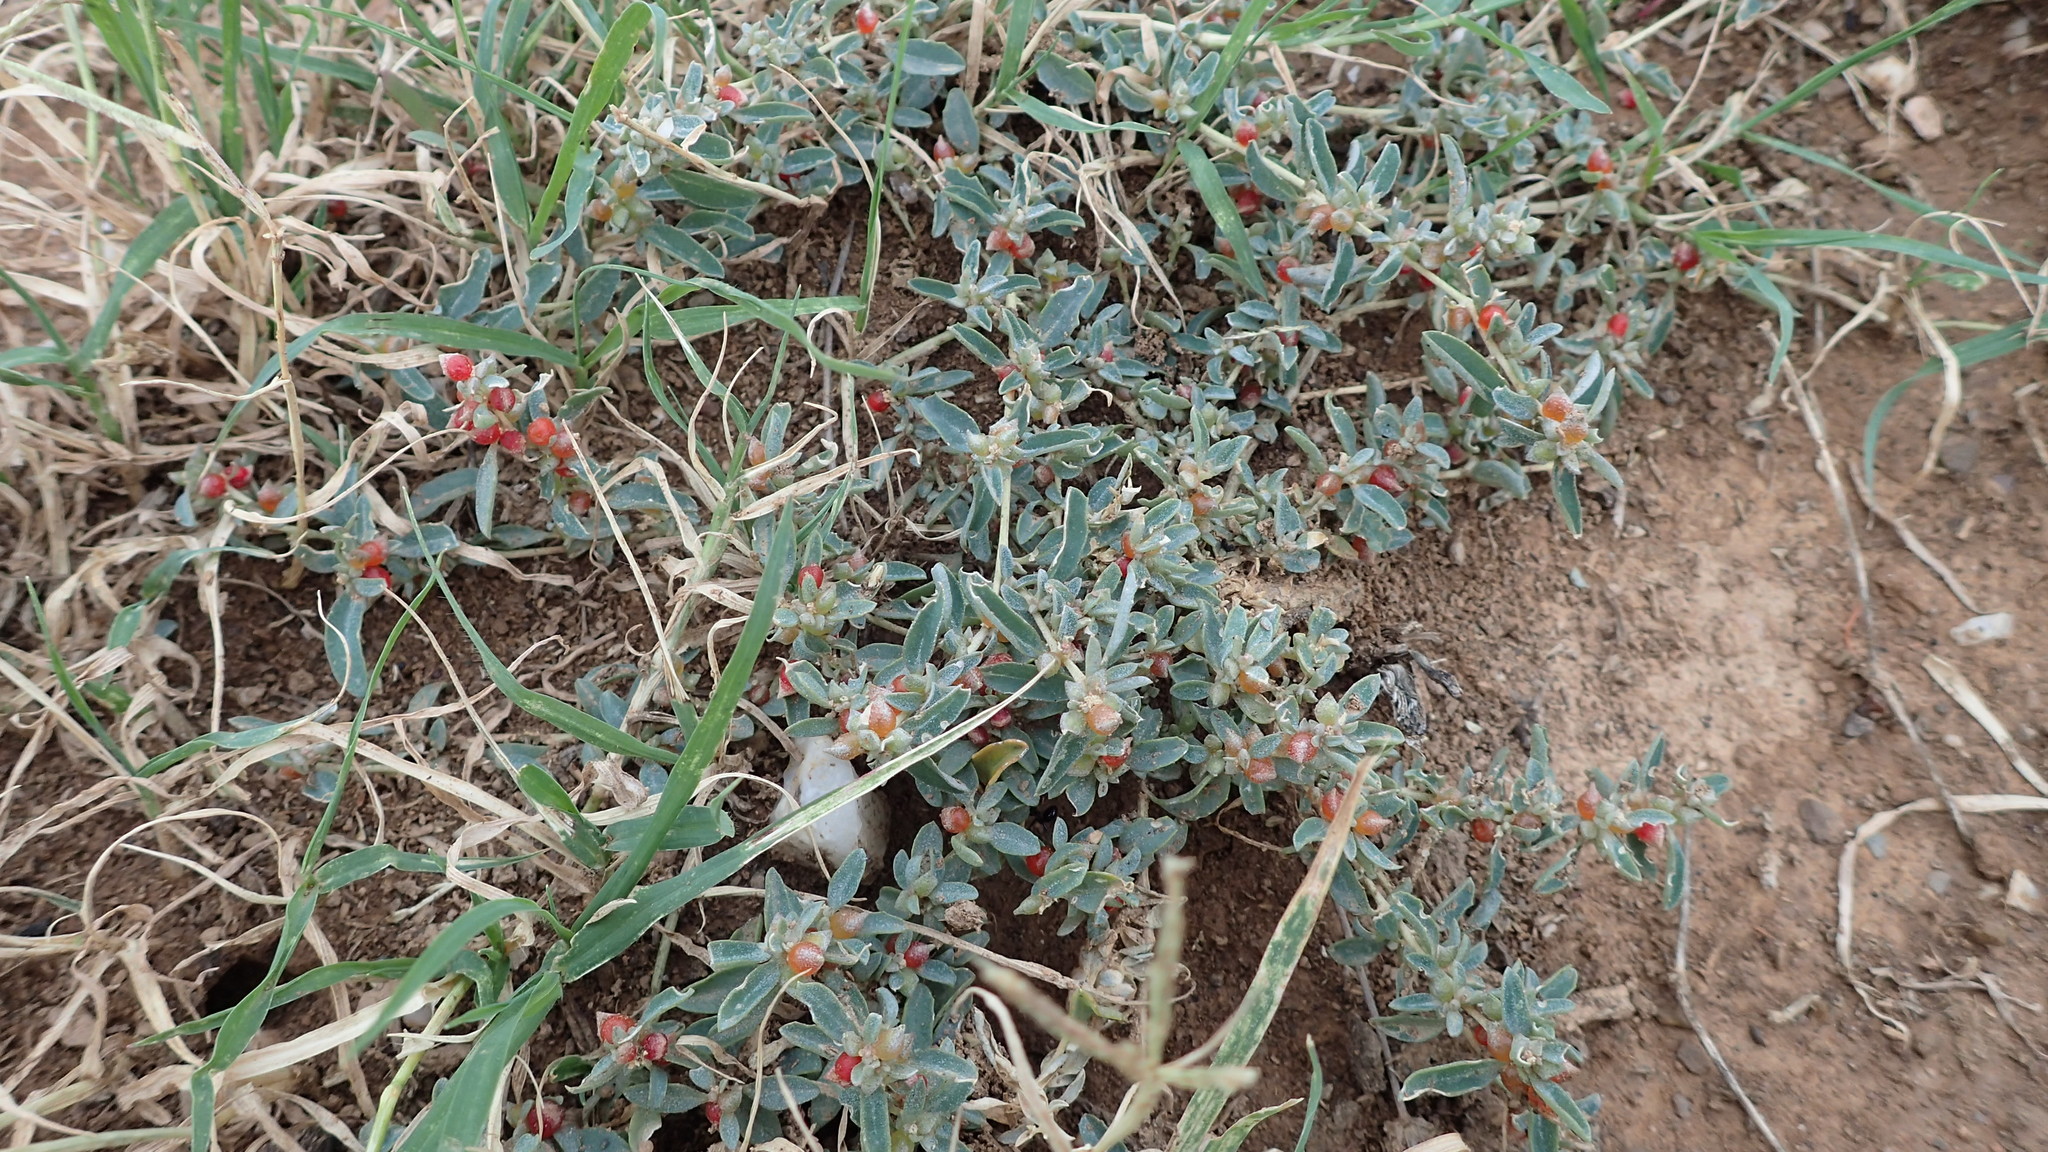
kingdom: Plantae
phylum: Tracheophyta
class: Magnoliopsida
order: Caryophyllales
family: Amaranthaceae
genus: Atriplex
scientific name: Atriplex semibaccata
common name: Australian saltbush
